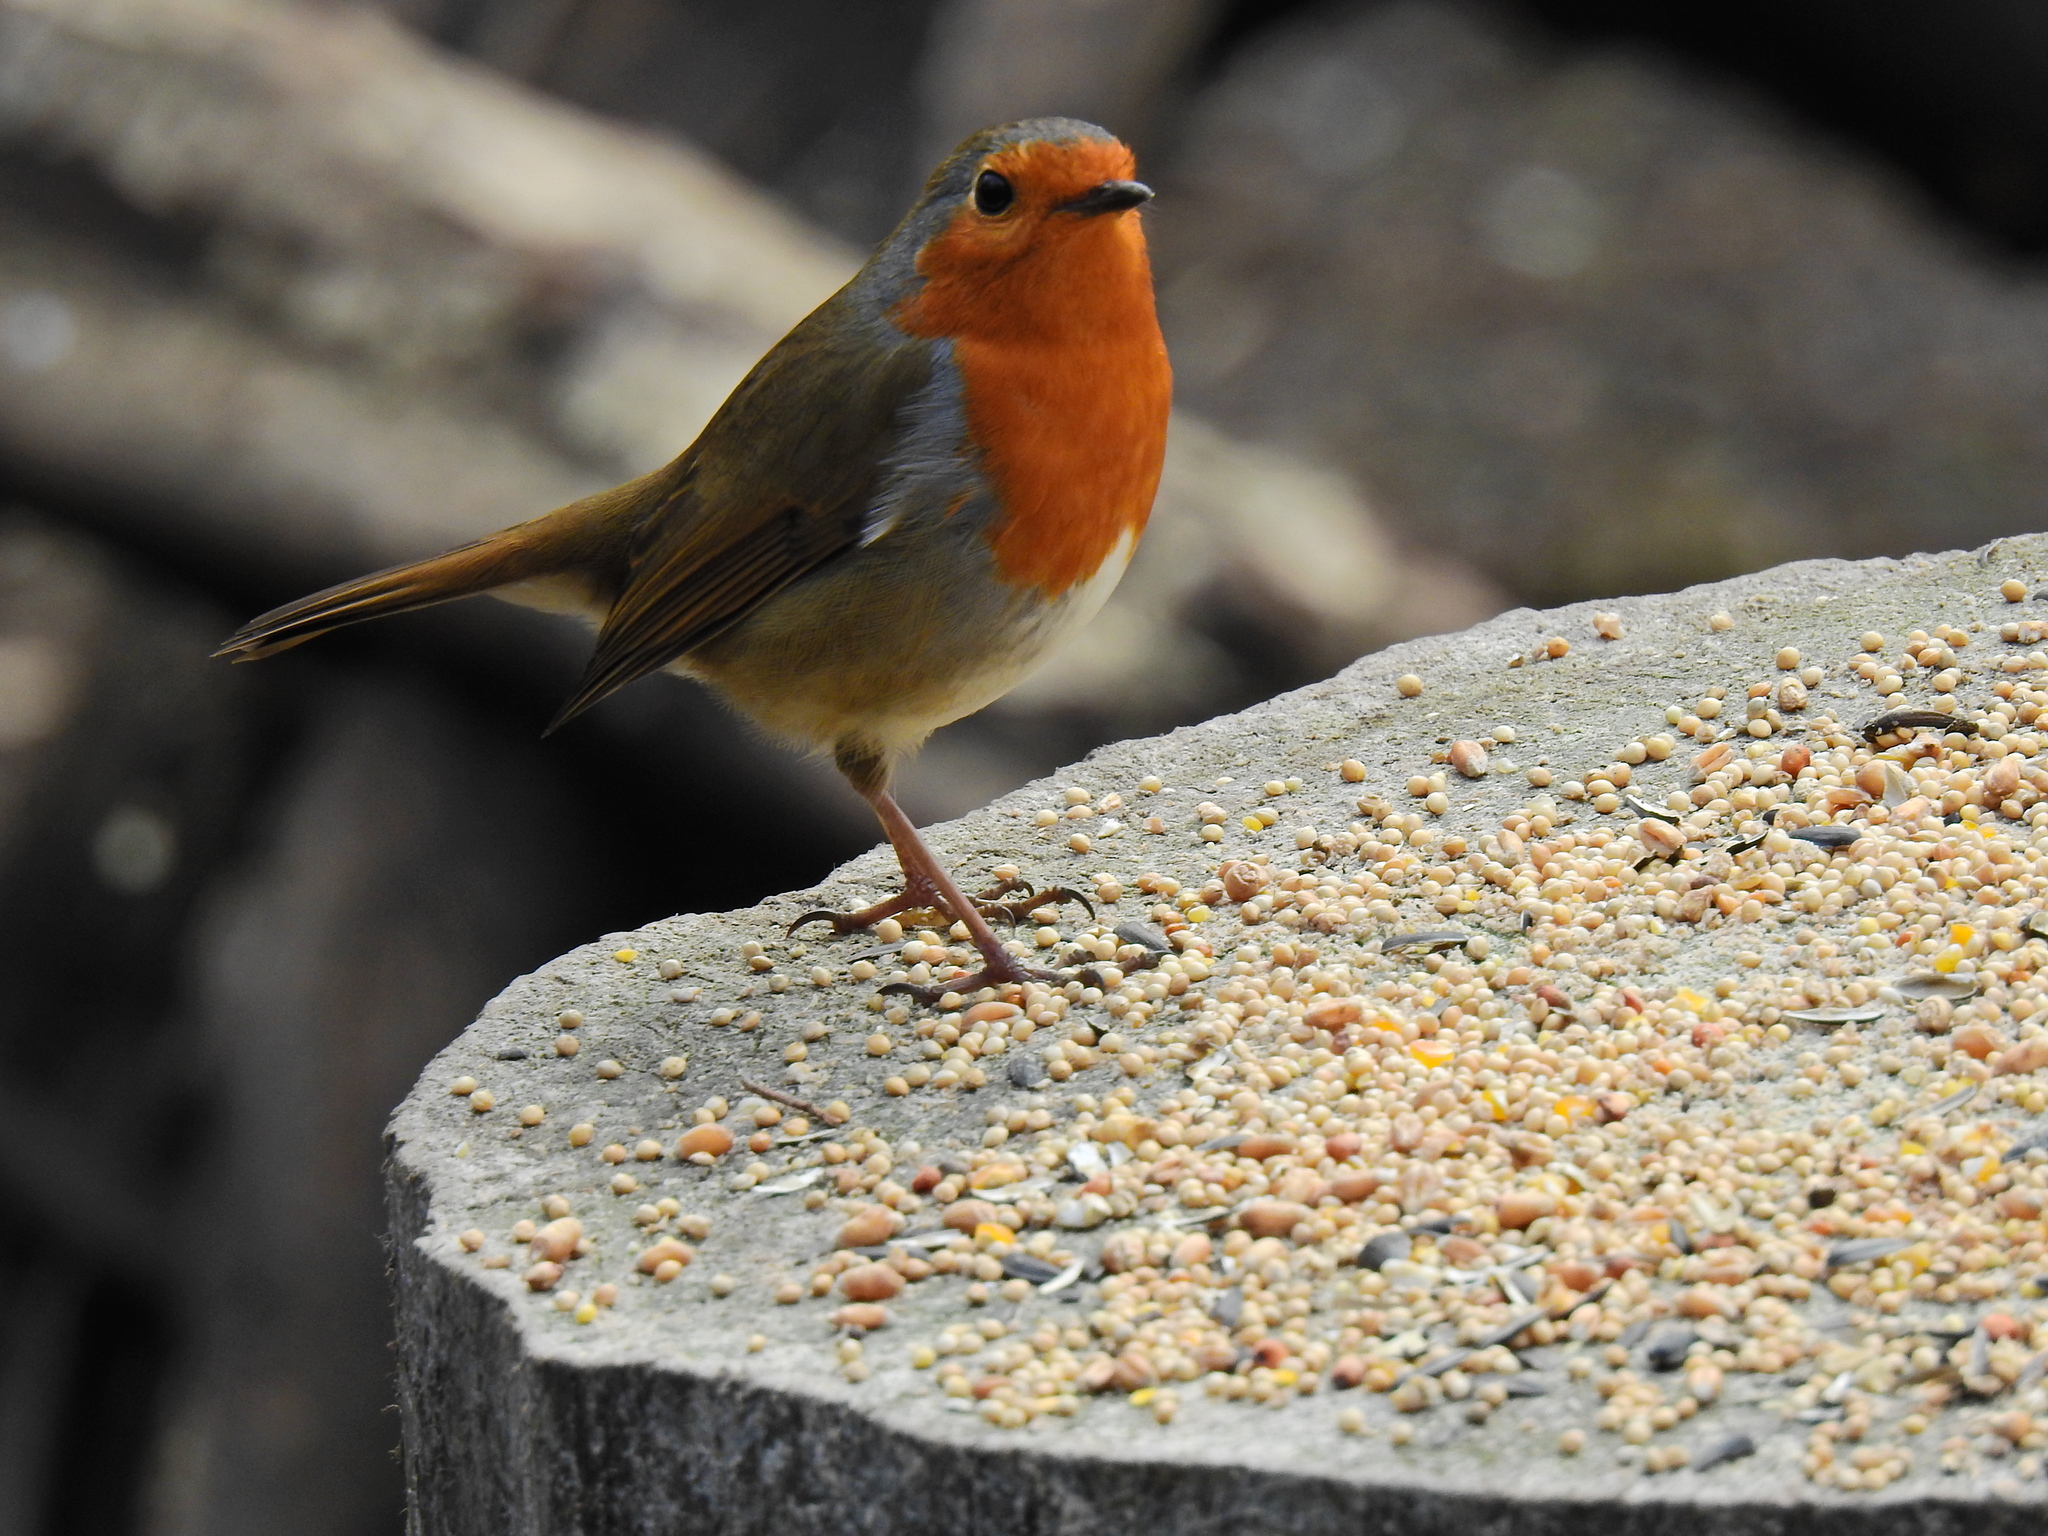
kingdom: Animalia
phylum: Chordata
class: Aves
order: Passeriformes
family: Muscicapidae
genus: Erithacus
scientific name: Erithacus rubecula
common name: European robin
